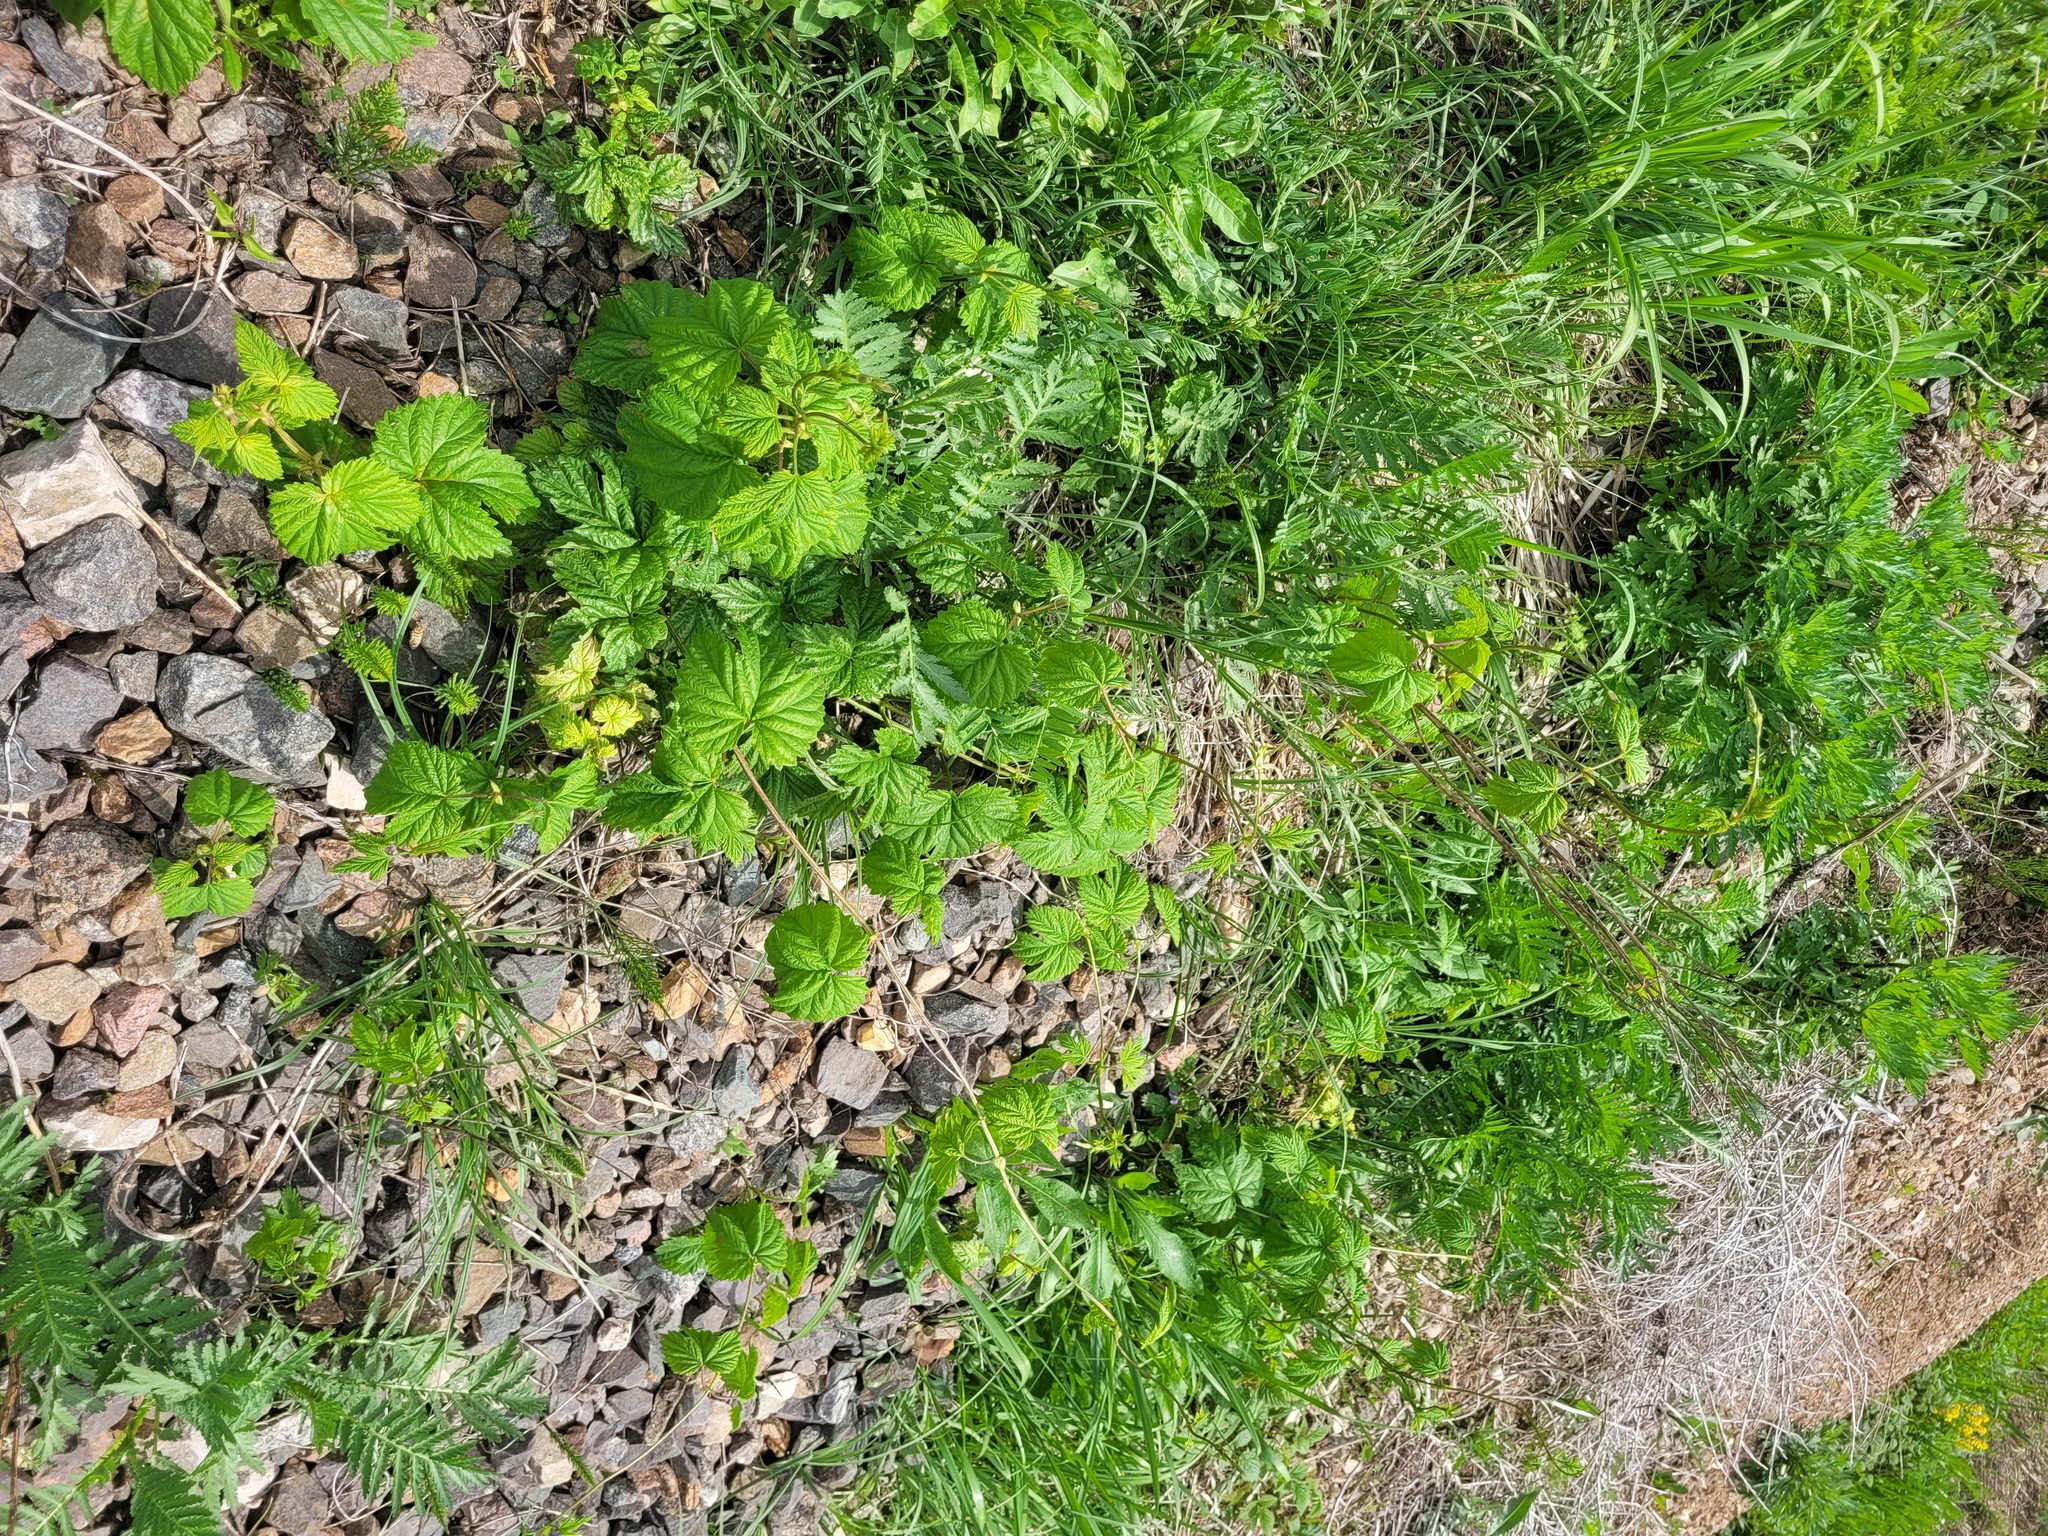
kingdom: Plantae
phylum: Tracheophyta
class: Magnoliopsida
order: Rosales
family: Cannabaceae
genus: Humulus
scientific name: Humulus lupulus
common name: Hop
